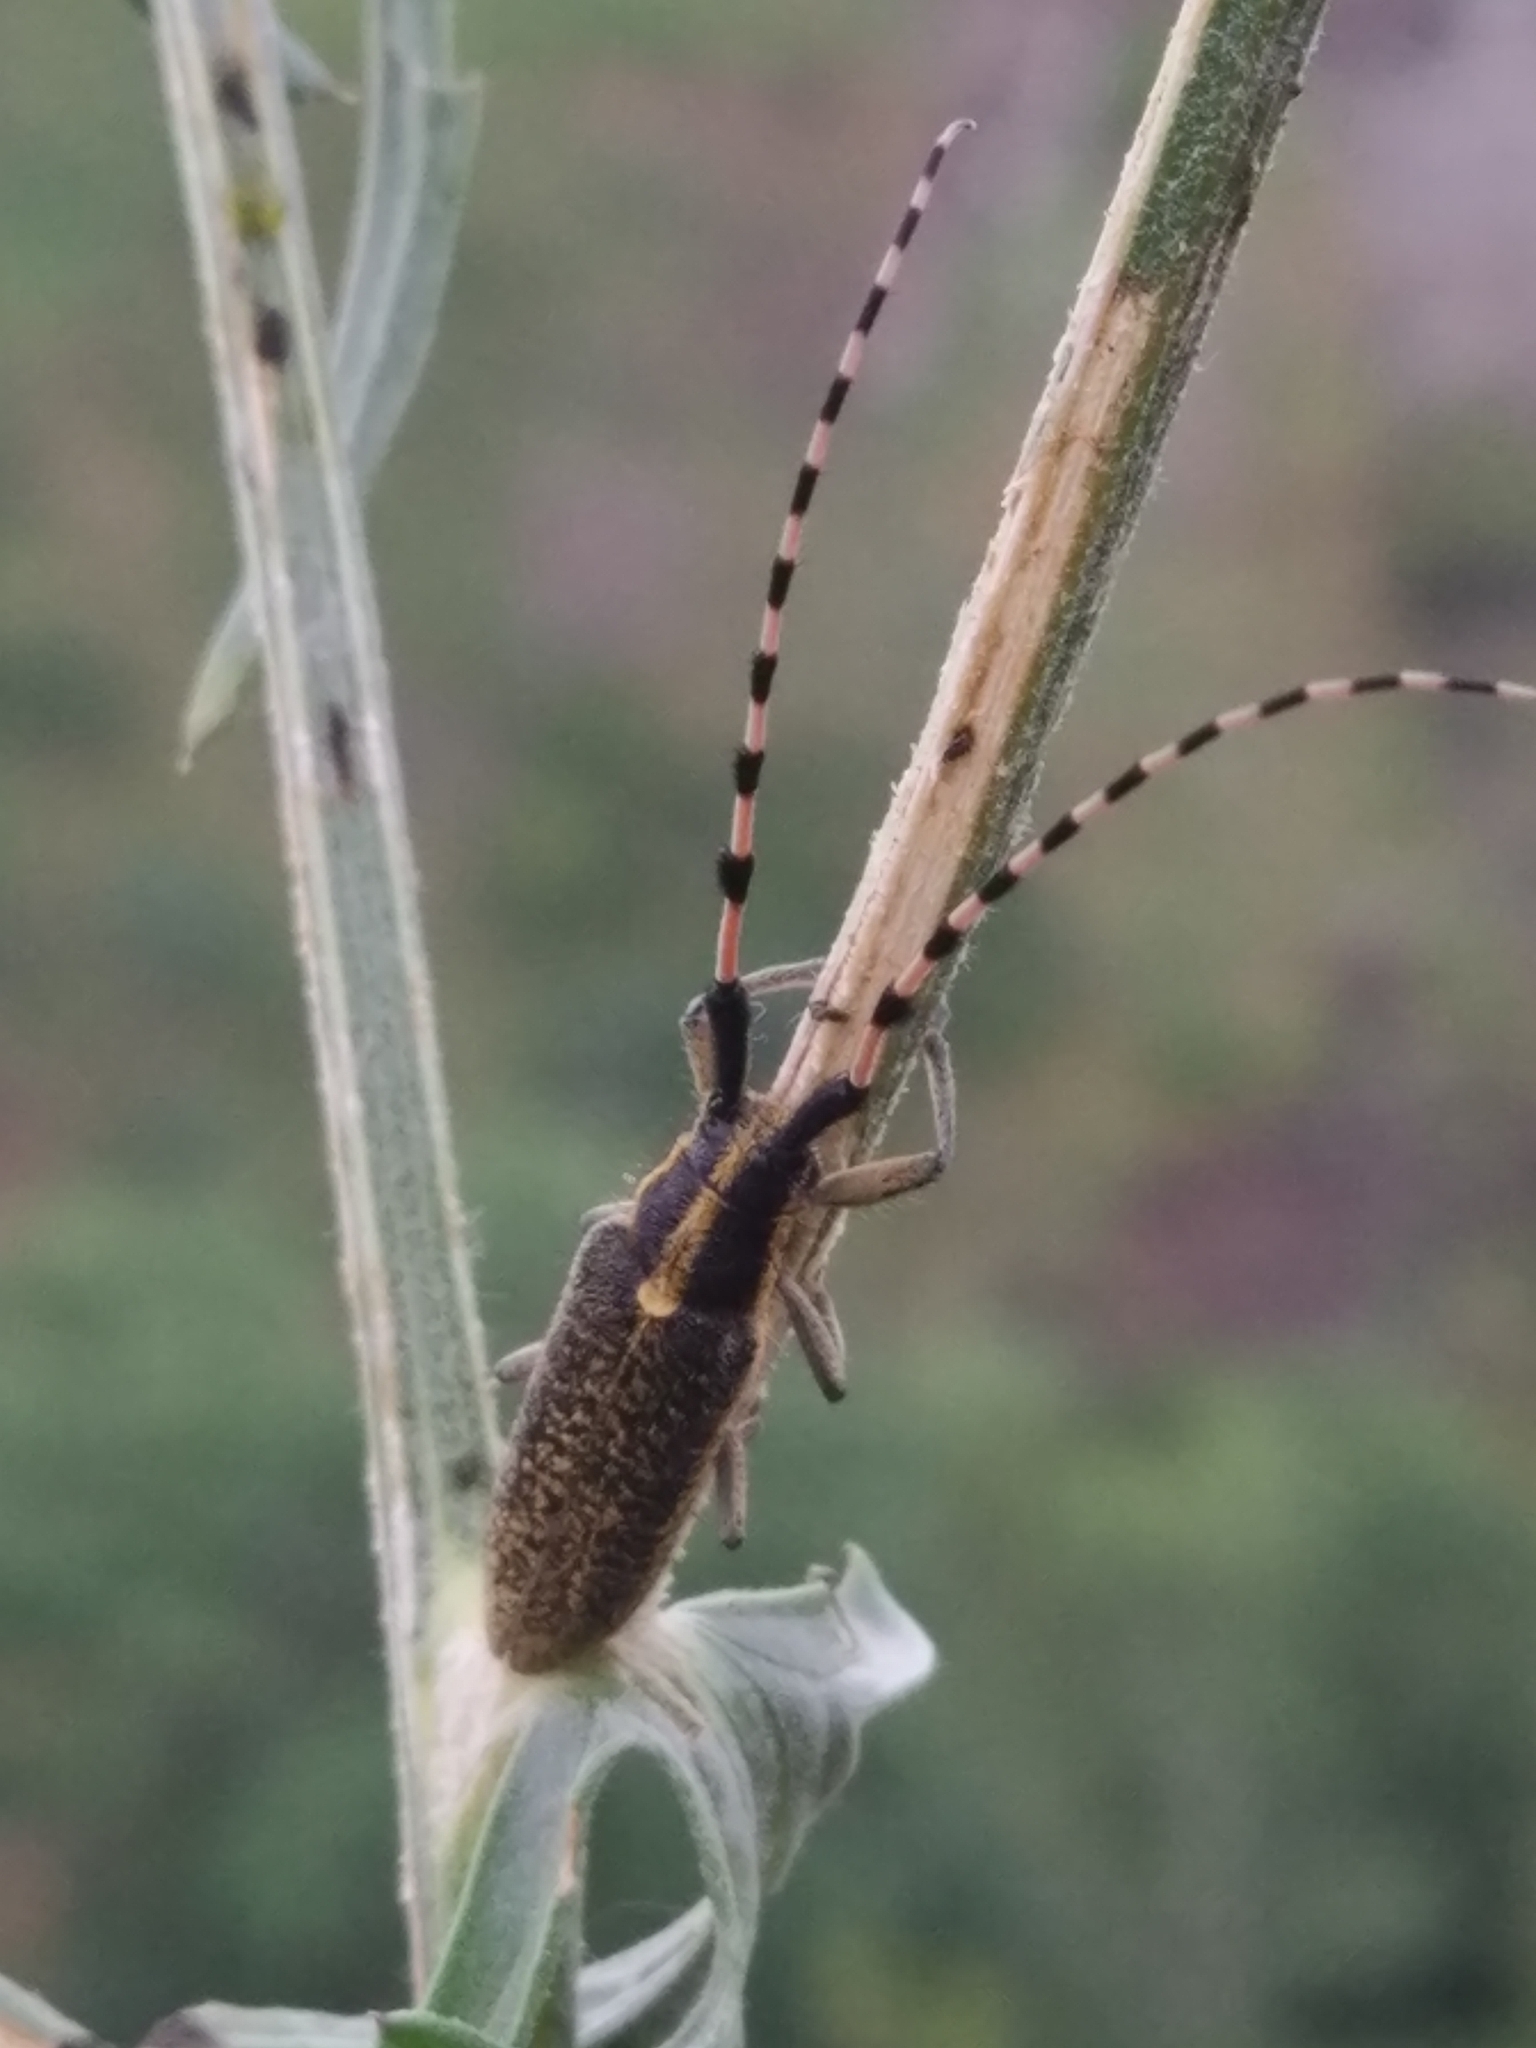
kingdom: Animalia
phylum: Arthropoda
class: Insecta
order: Coleoptera
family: Cerambycidae
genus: Agapanthia
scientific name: Agapanthia dahlii
